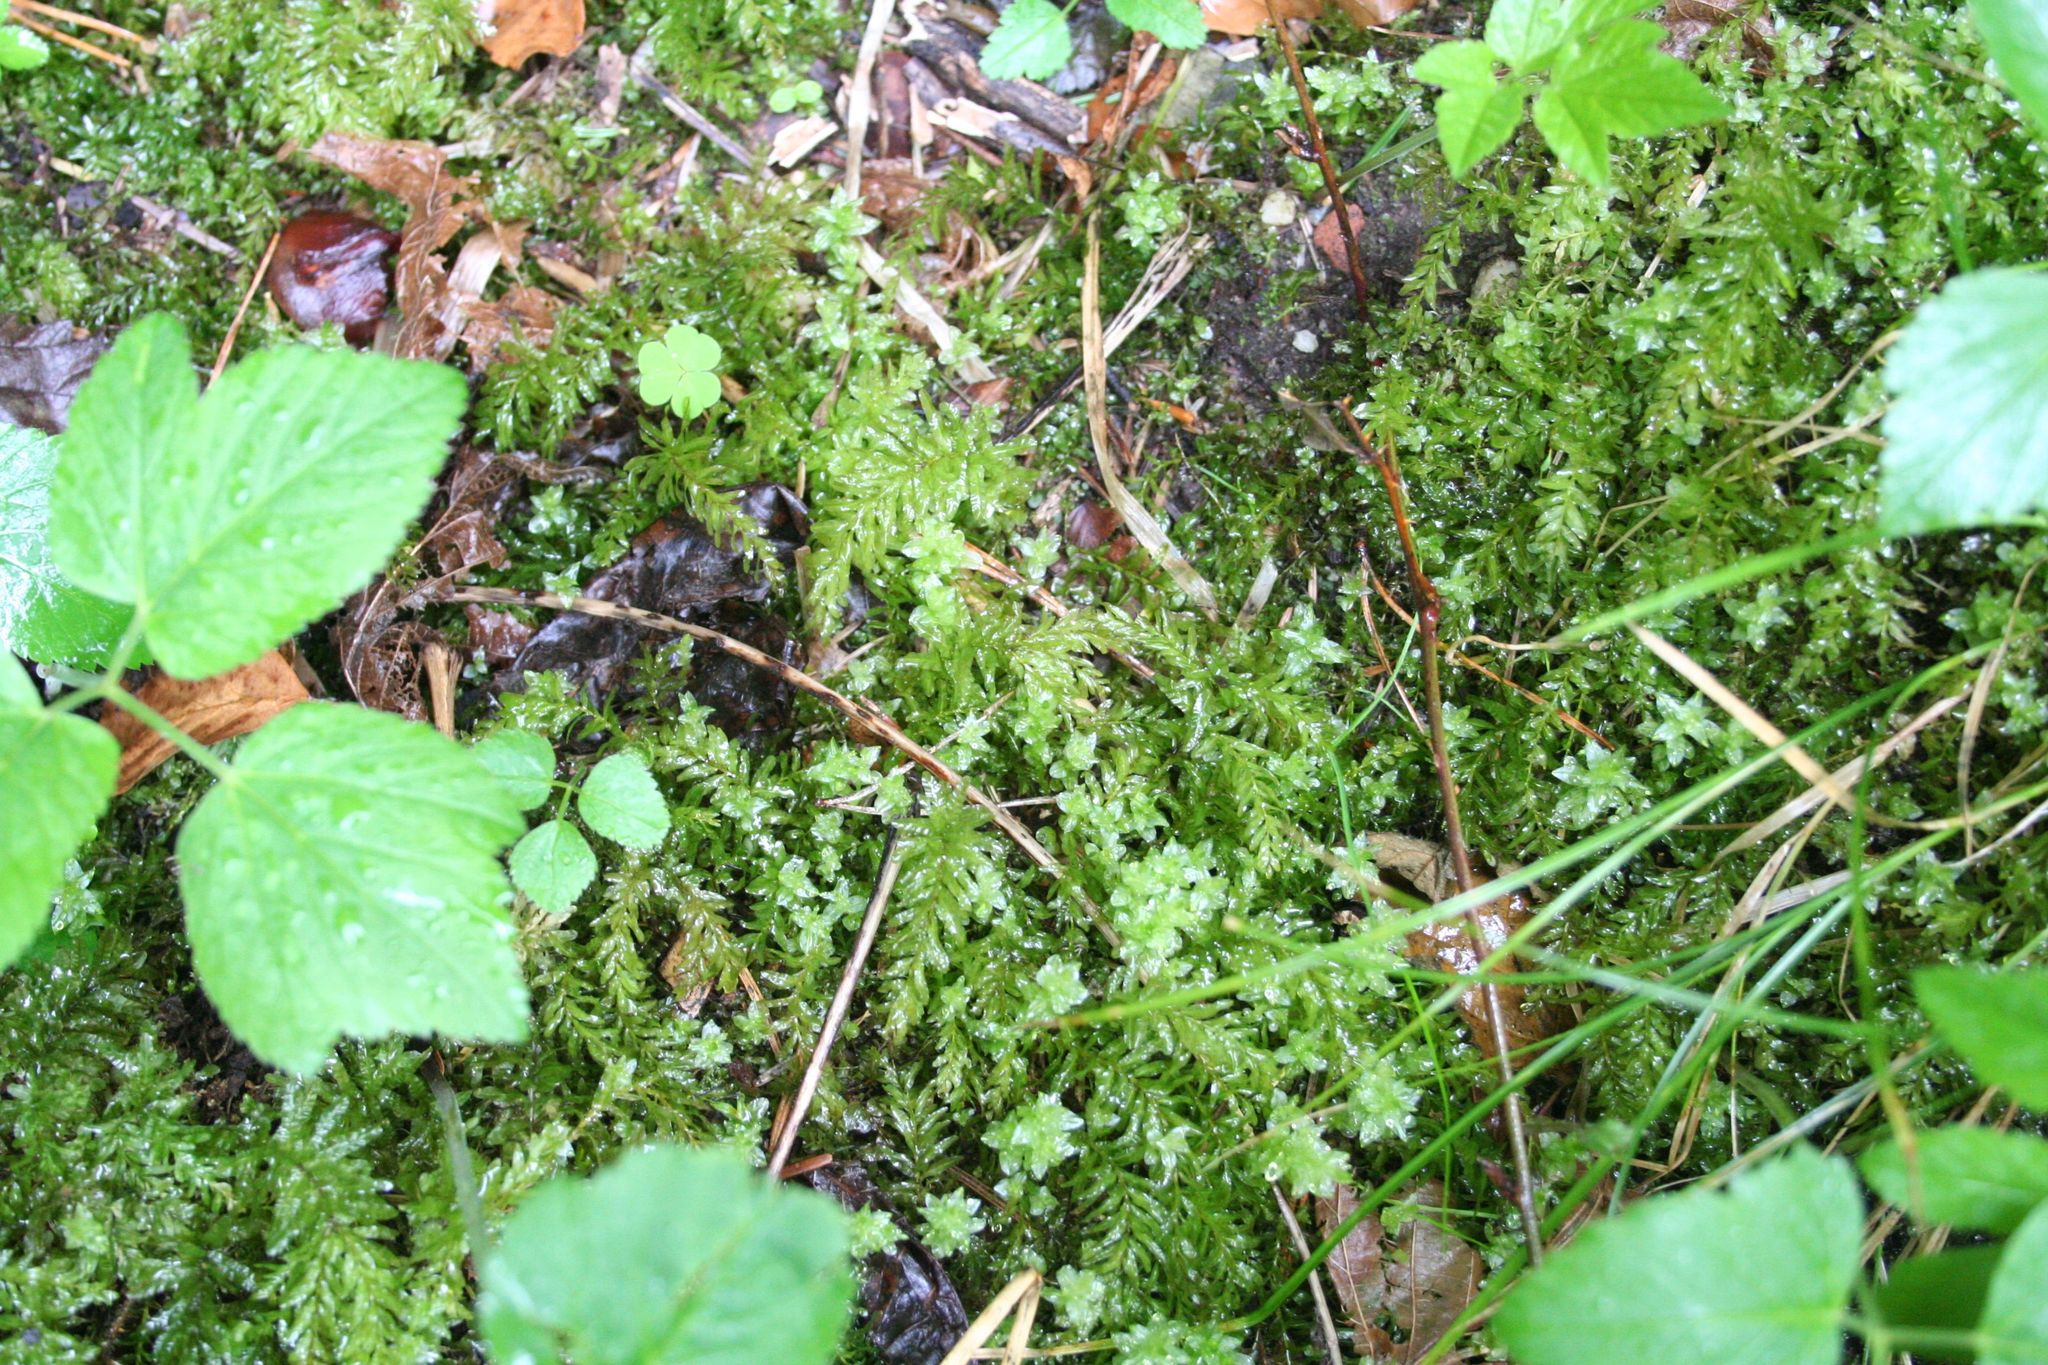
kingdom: Plantae
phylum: Bryophyta
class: Bryopsida
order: Bryales
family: Mniaceae
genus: Plagiomnium
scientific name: Plagiomnium undulatum
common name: Hart's-tongue thyme-moss
